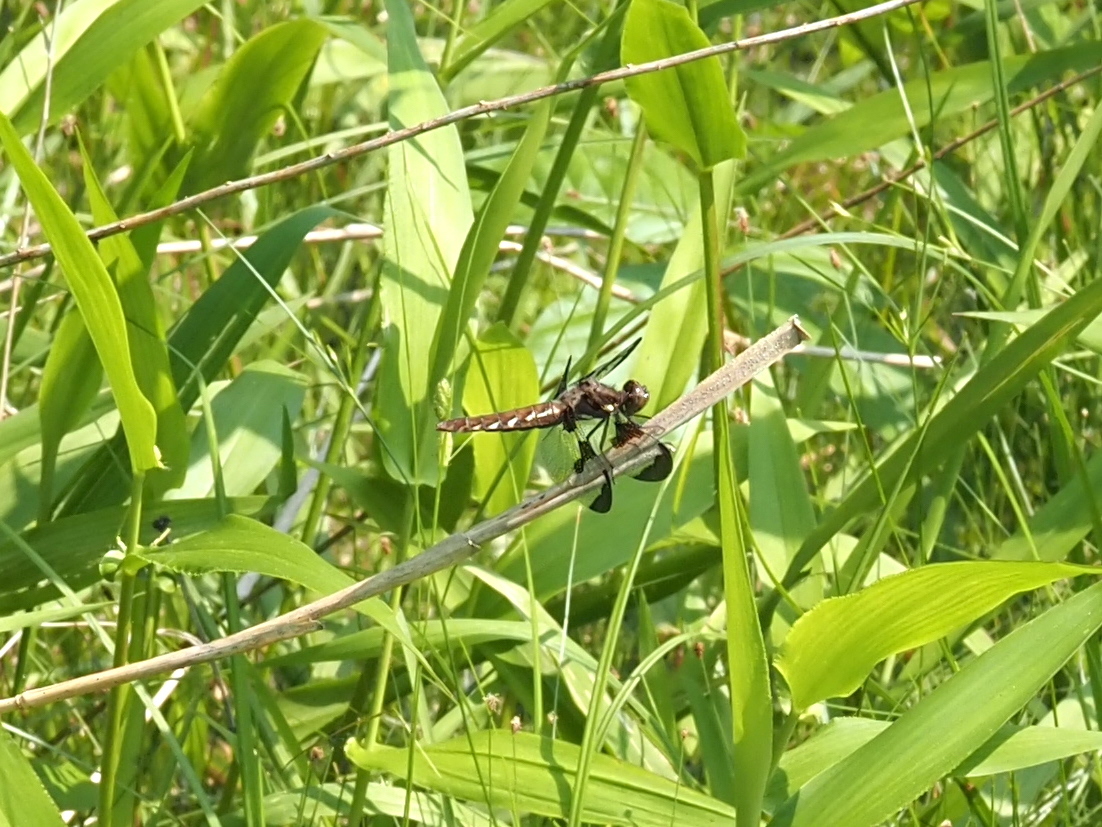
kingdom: Animalia
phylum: Arthropoda
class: Insecta
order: Odonata
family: Libellulidae
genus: Plathemis
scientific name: Plathemis lydia
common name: Common whitetail
